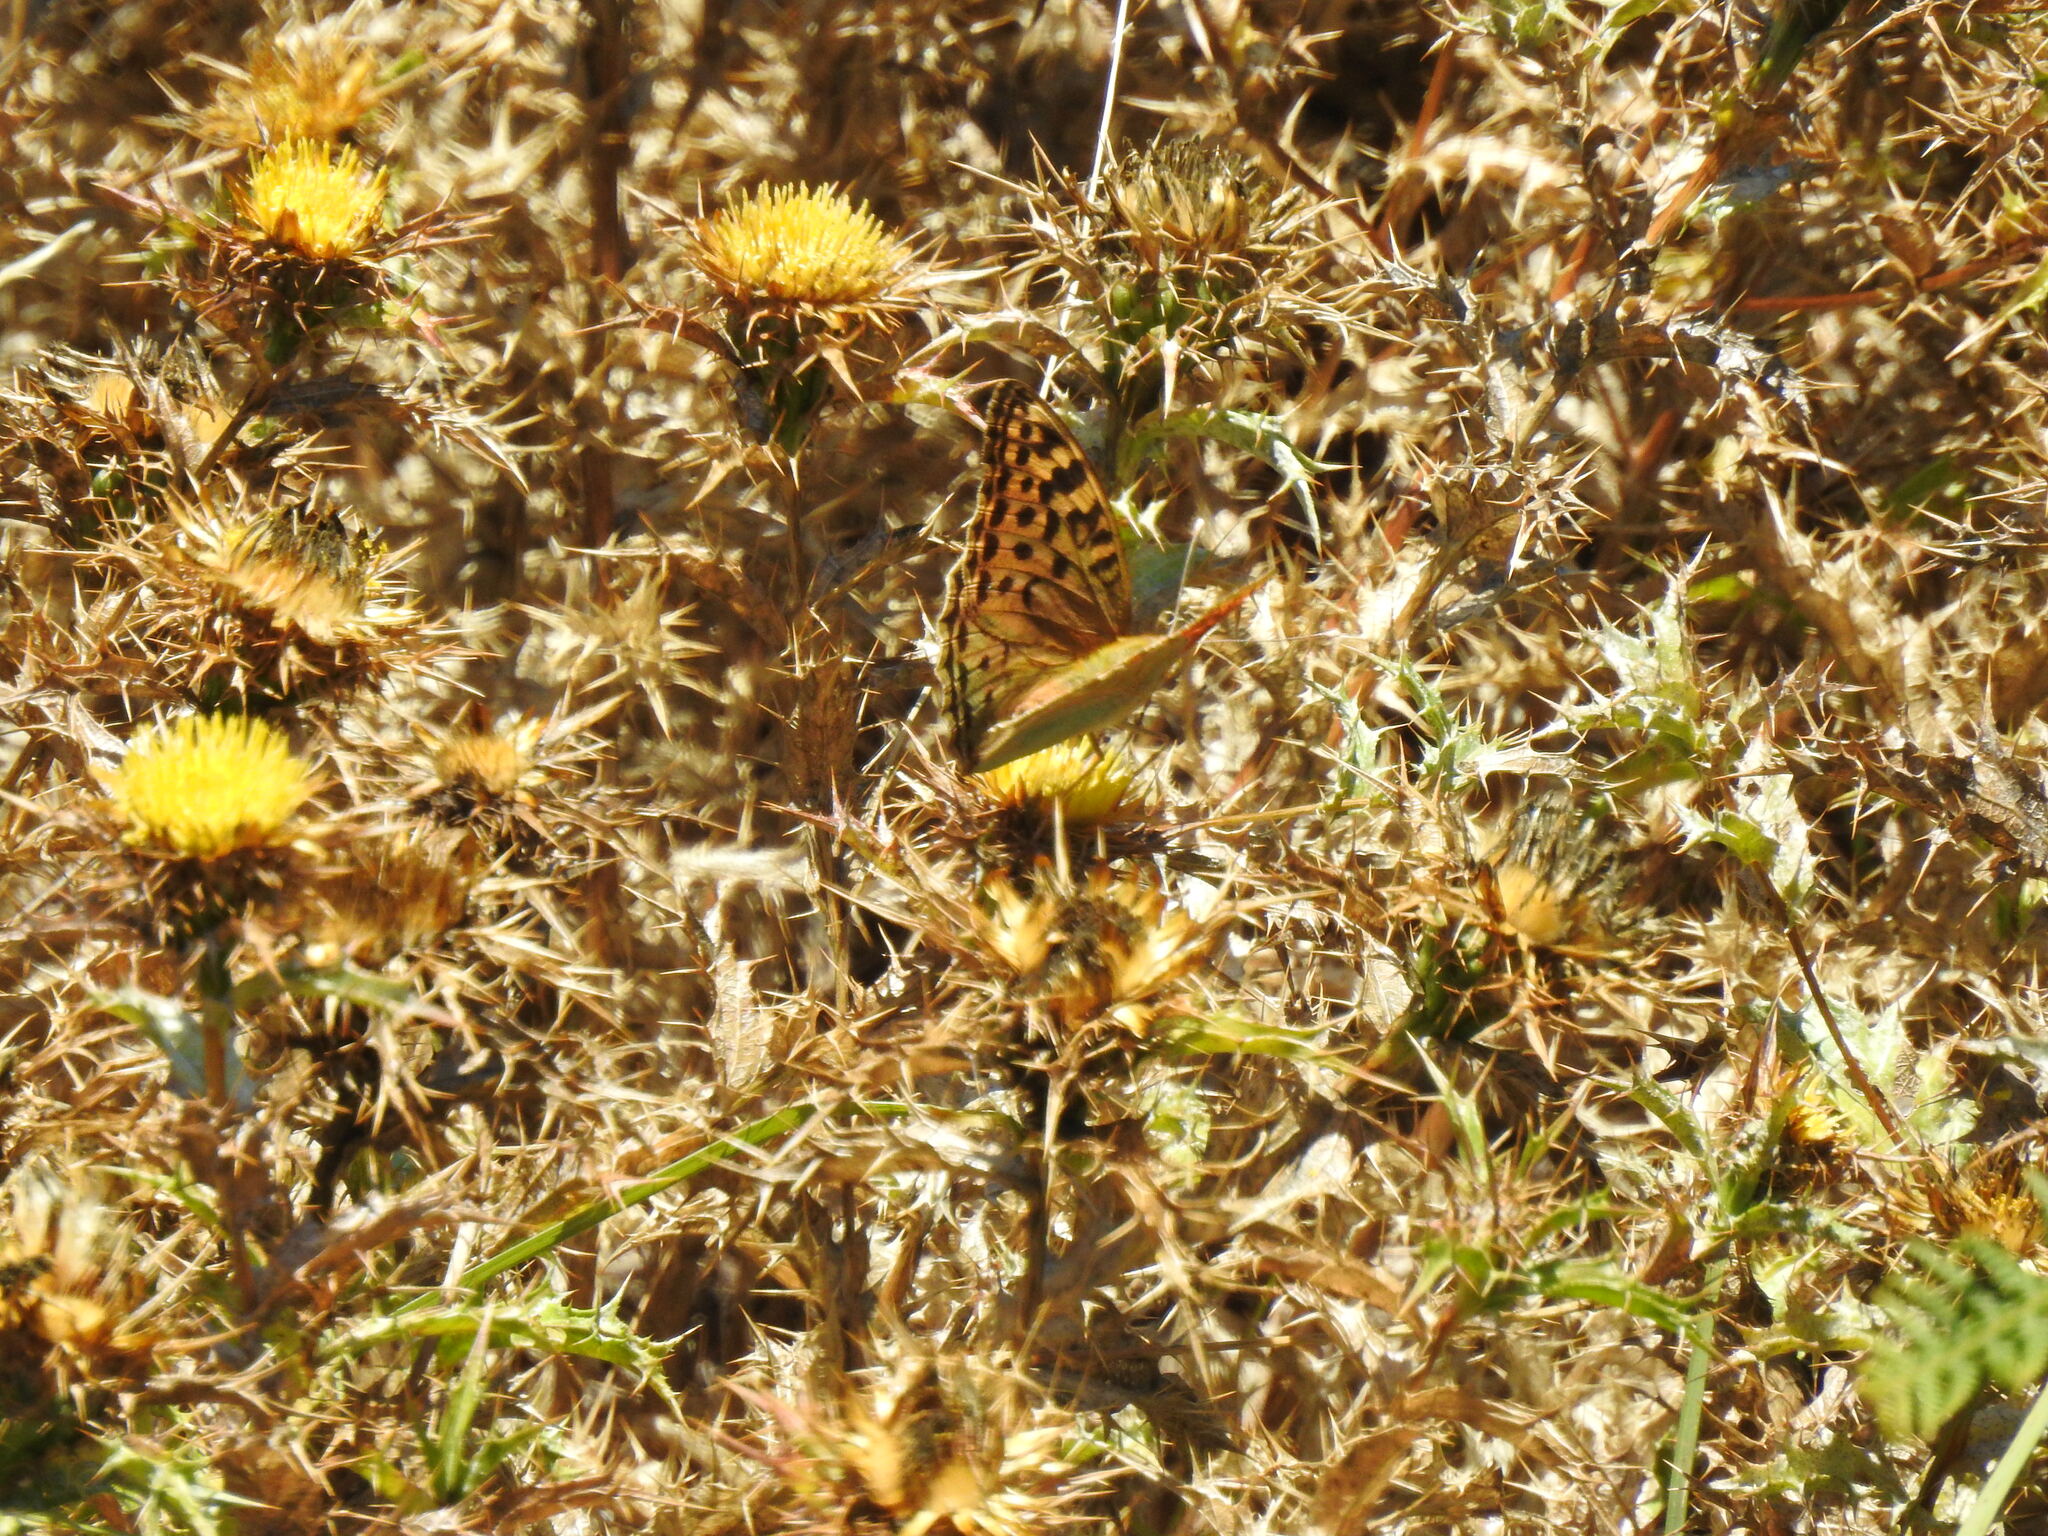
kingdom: Animalia
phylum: Arthropoda
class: Insecta
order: Lepidoptera
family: Nymphalidae
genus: Damora
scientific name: Damora pandora
